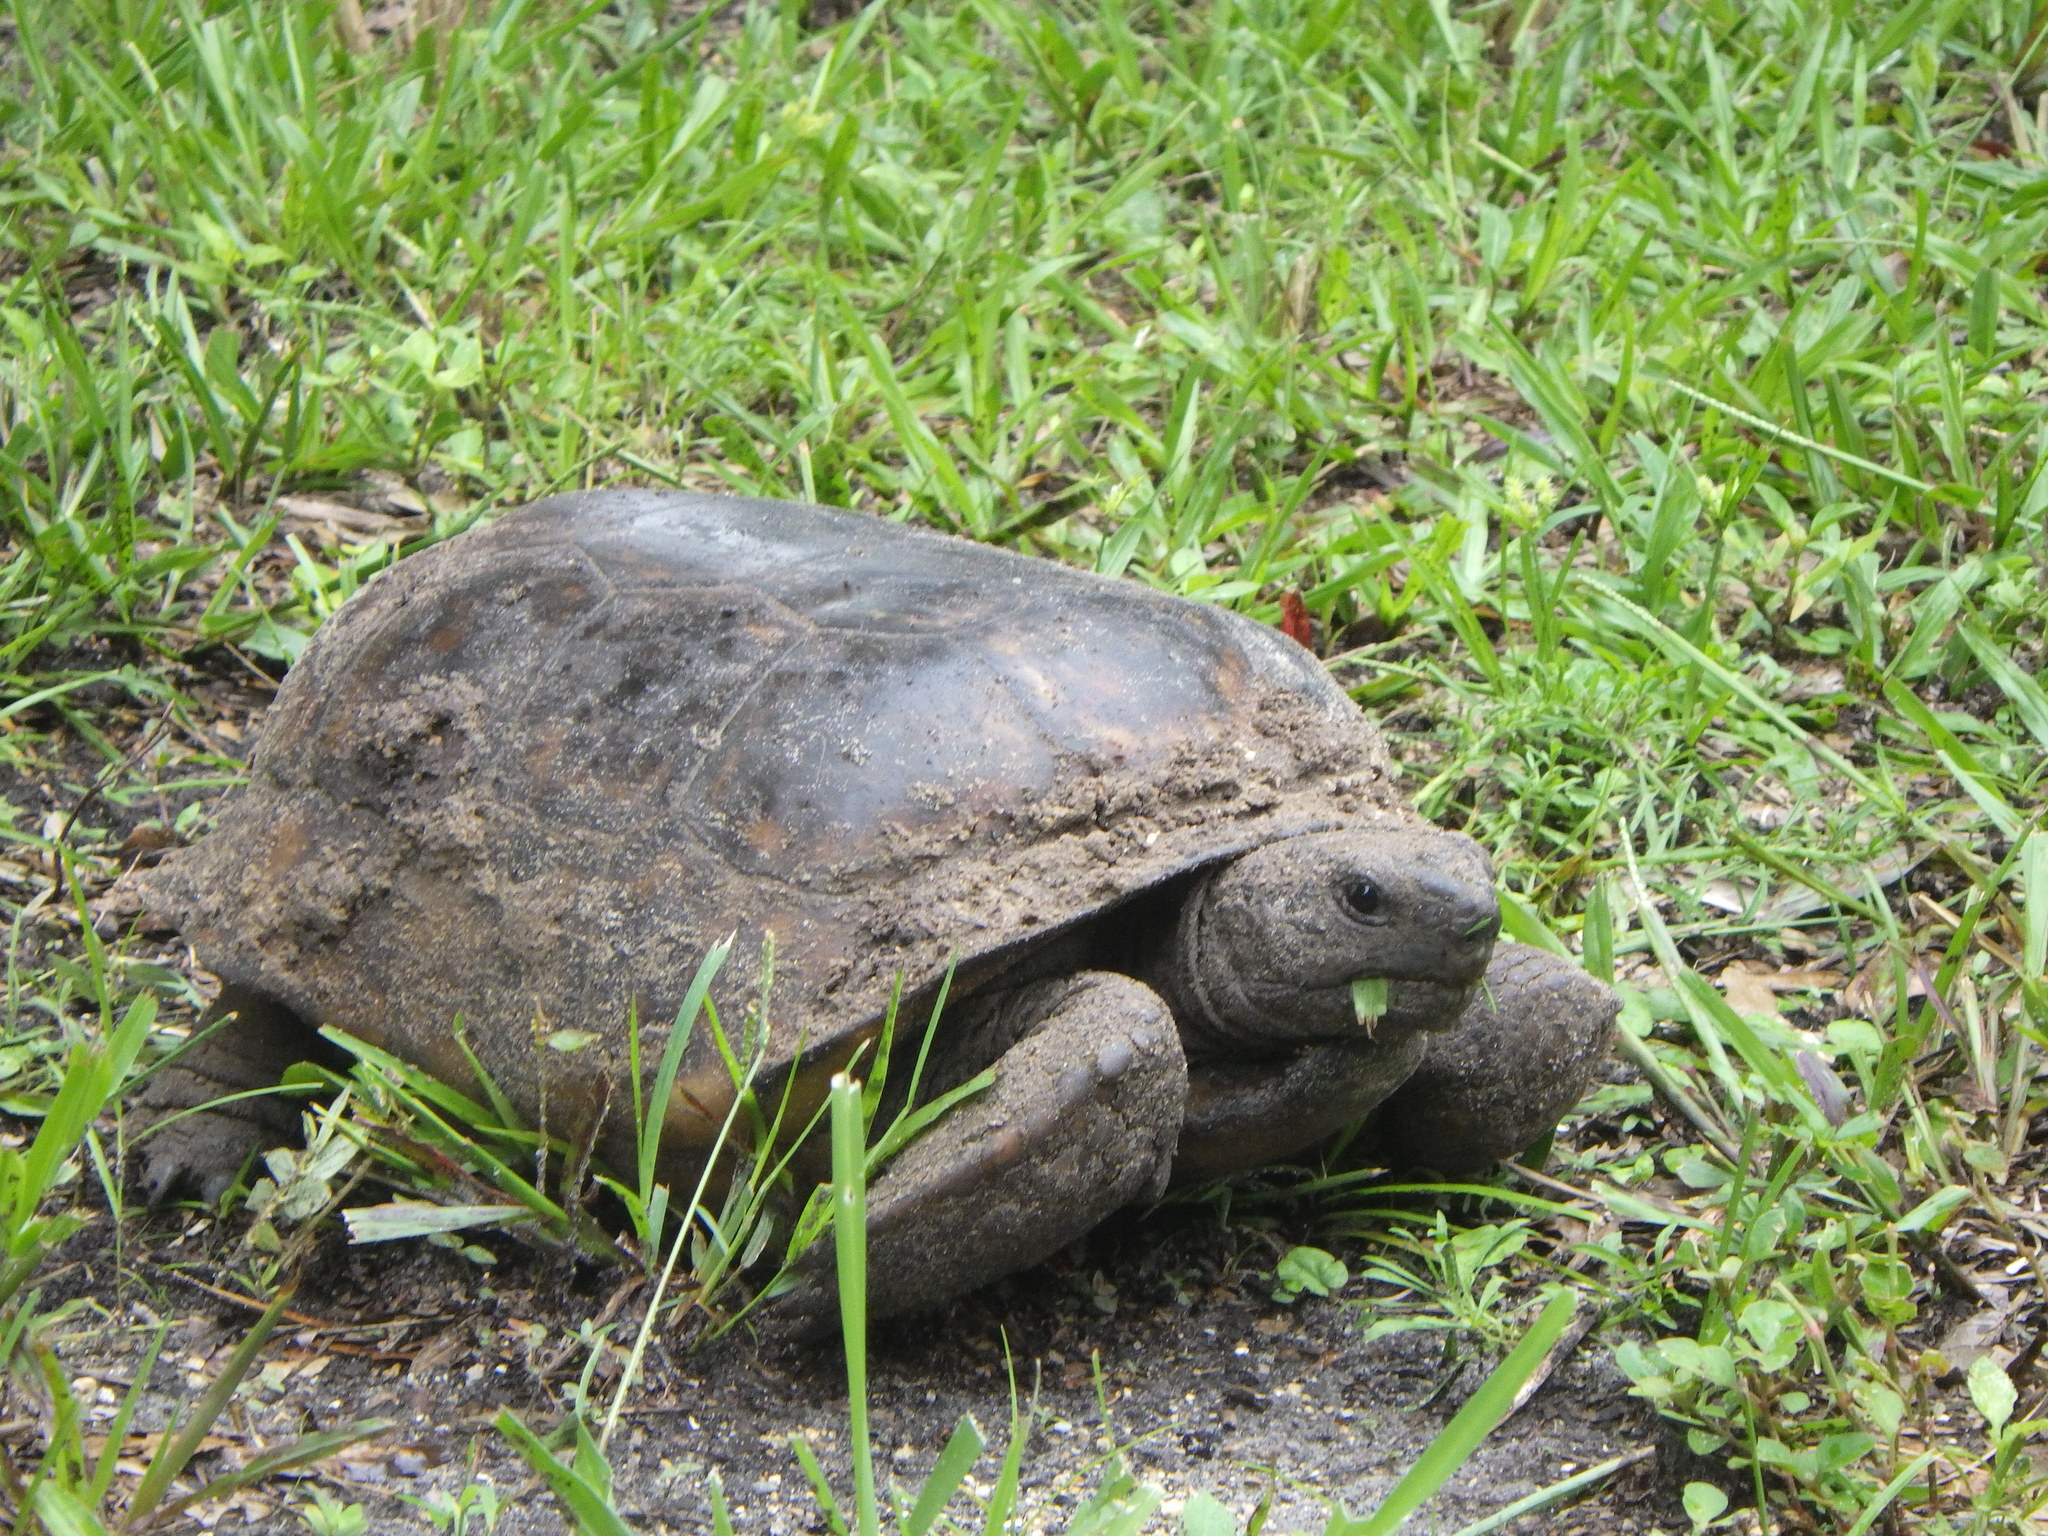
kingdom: Animalia
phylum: Chordata
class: Testudines
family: Testudinidae
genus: Gopherus
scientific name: Gopherus polyphemus
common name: Florida gopher tortoise
